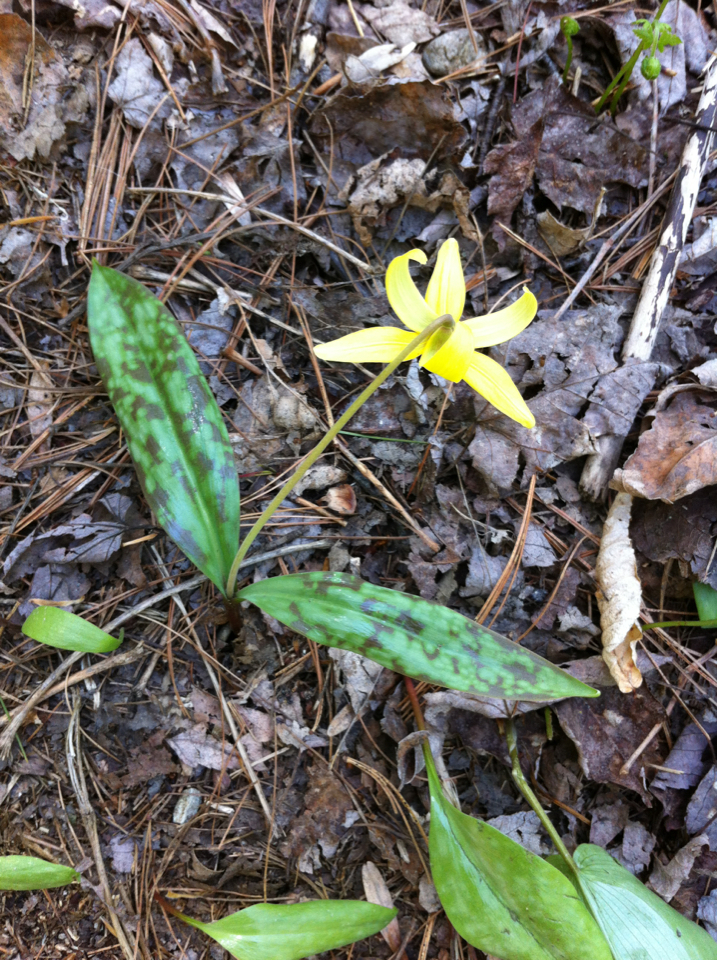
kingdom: Plantae
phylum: Tracheophyta
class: Liliopsida
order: Liliales
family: Liliaceae
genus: Erythronium
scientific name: Erythronium americanum
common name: Yellow adder's-tongue
